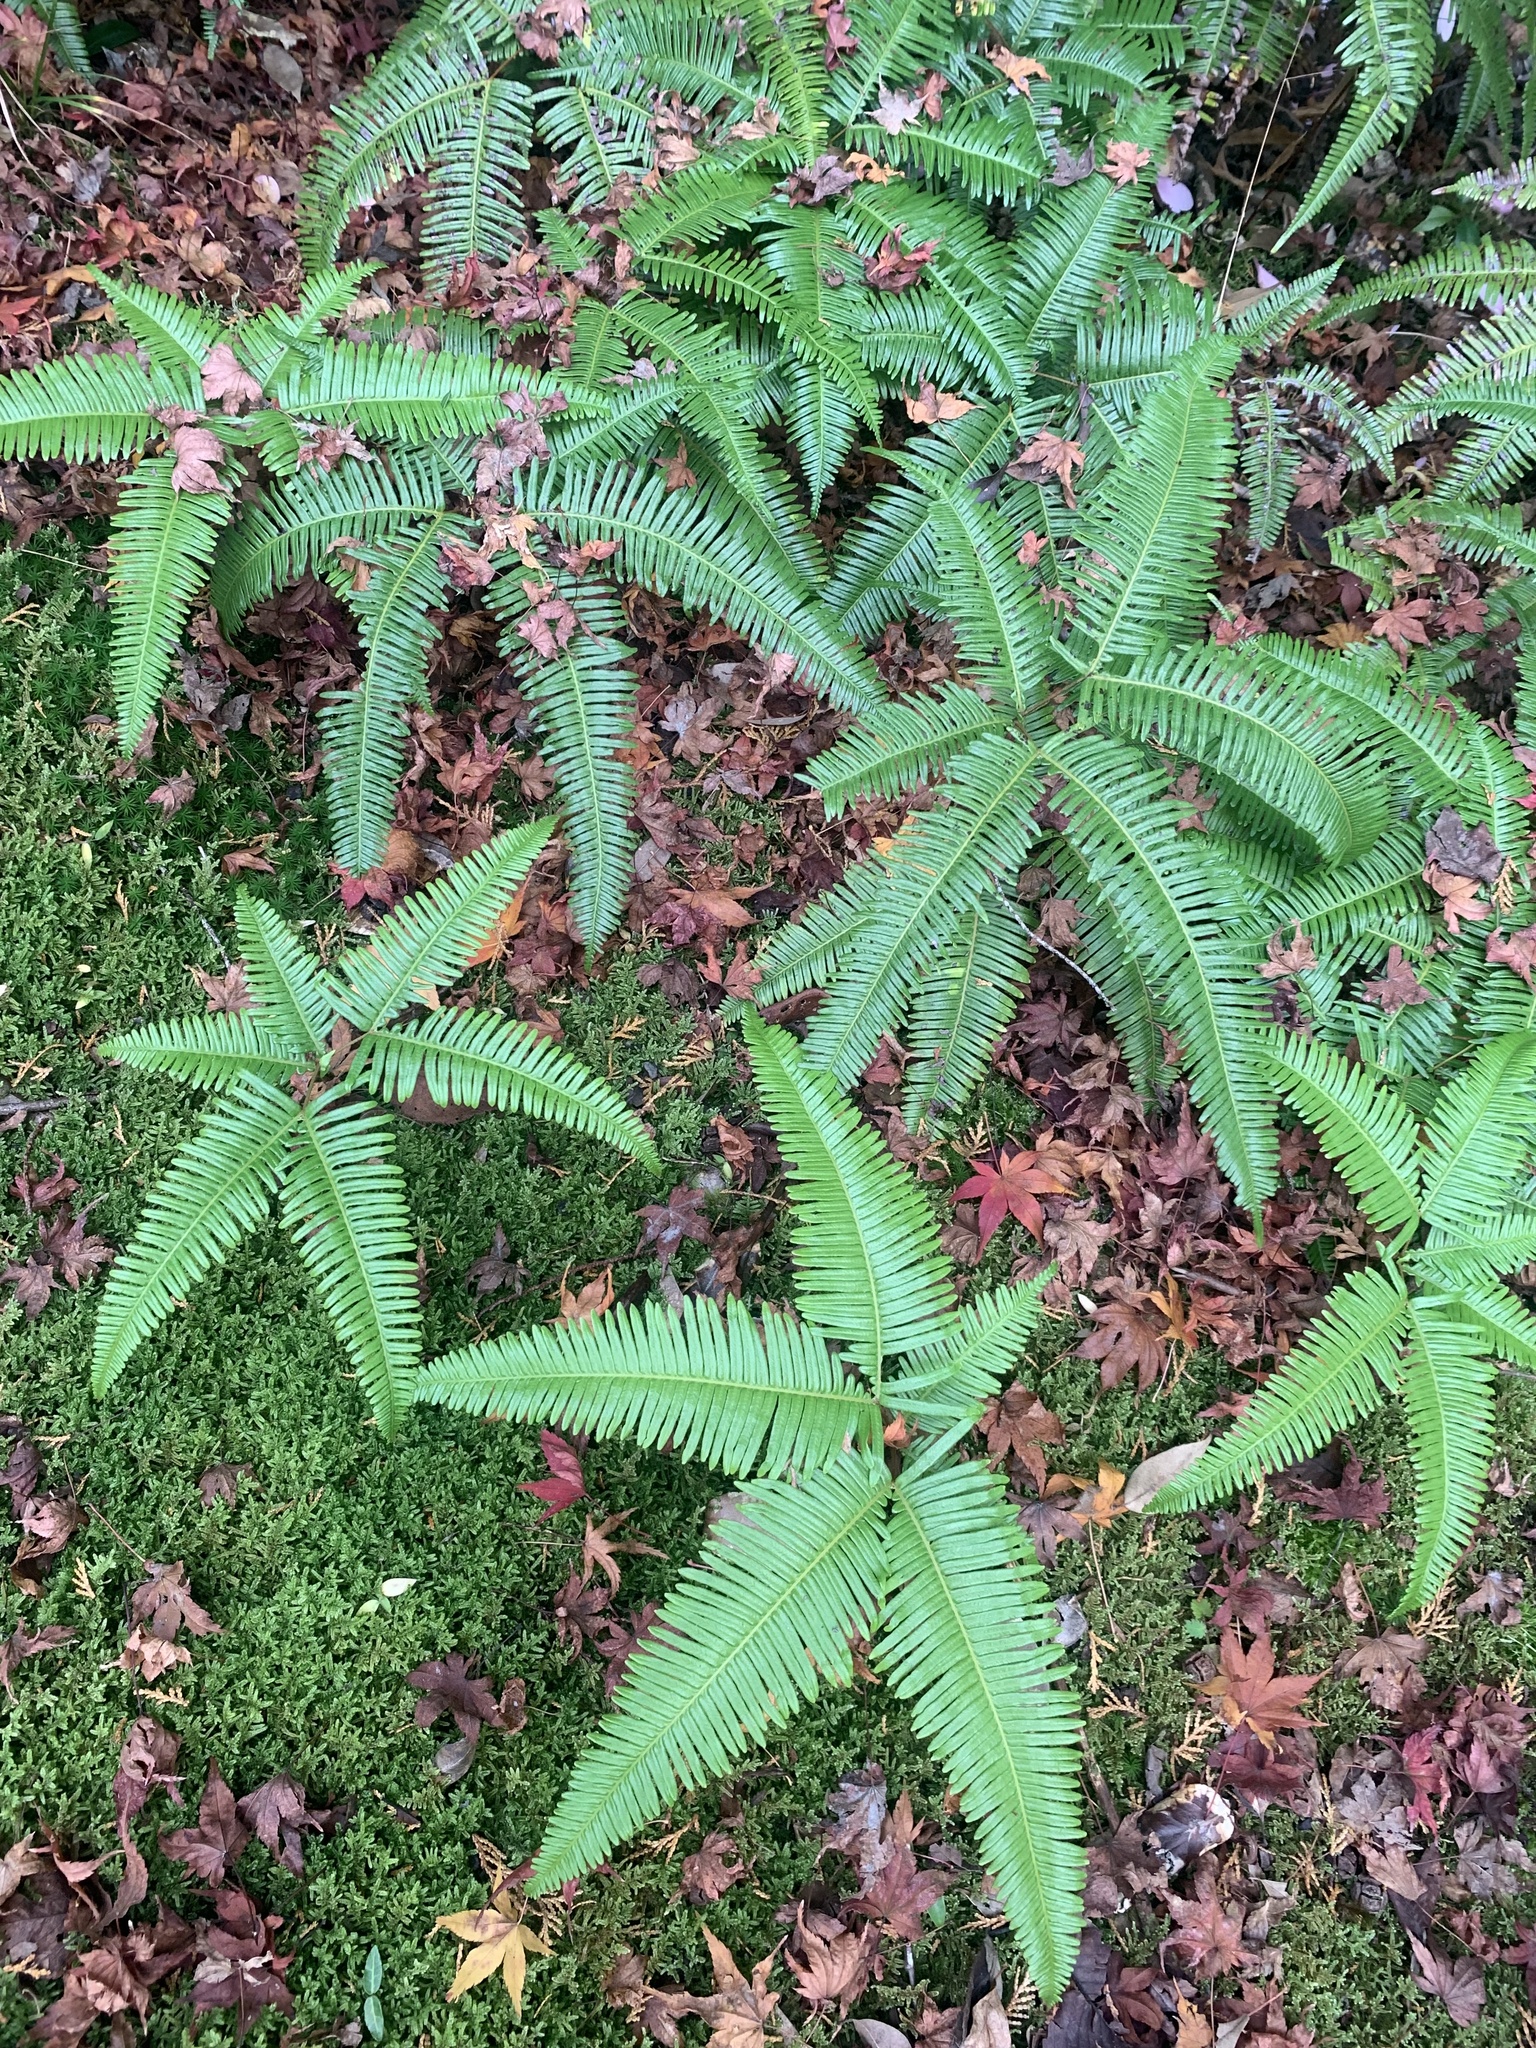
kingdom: Plantae
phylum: Tracheophyta
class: Polypodiopsida
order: Gleicheniales
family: Gleicheniaceae
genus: Dicranopteris
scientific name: Dicranopteris linearis
